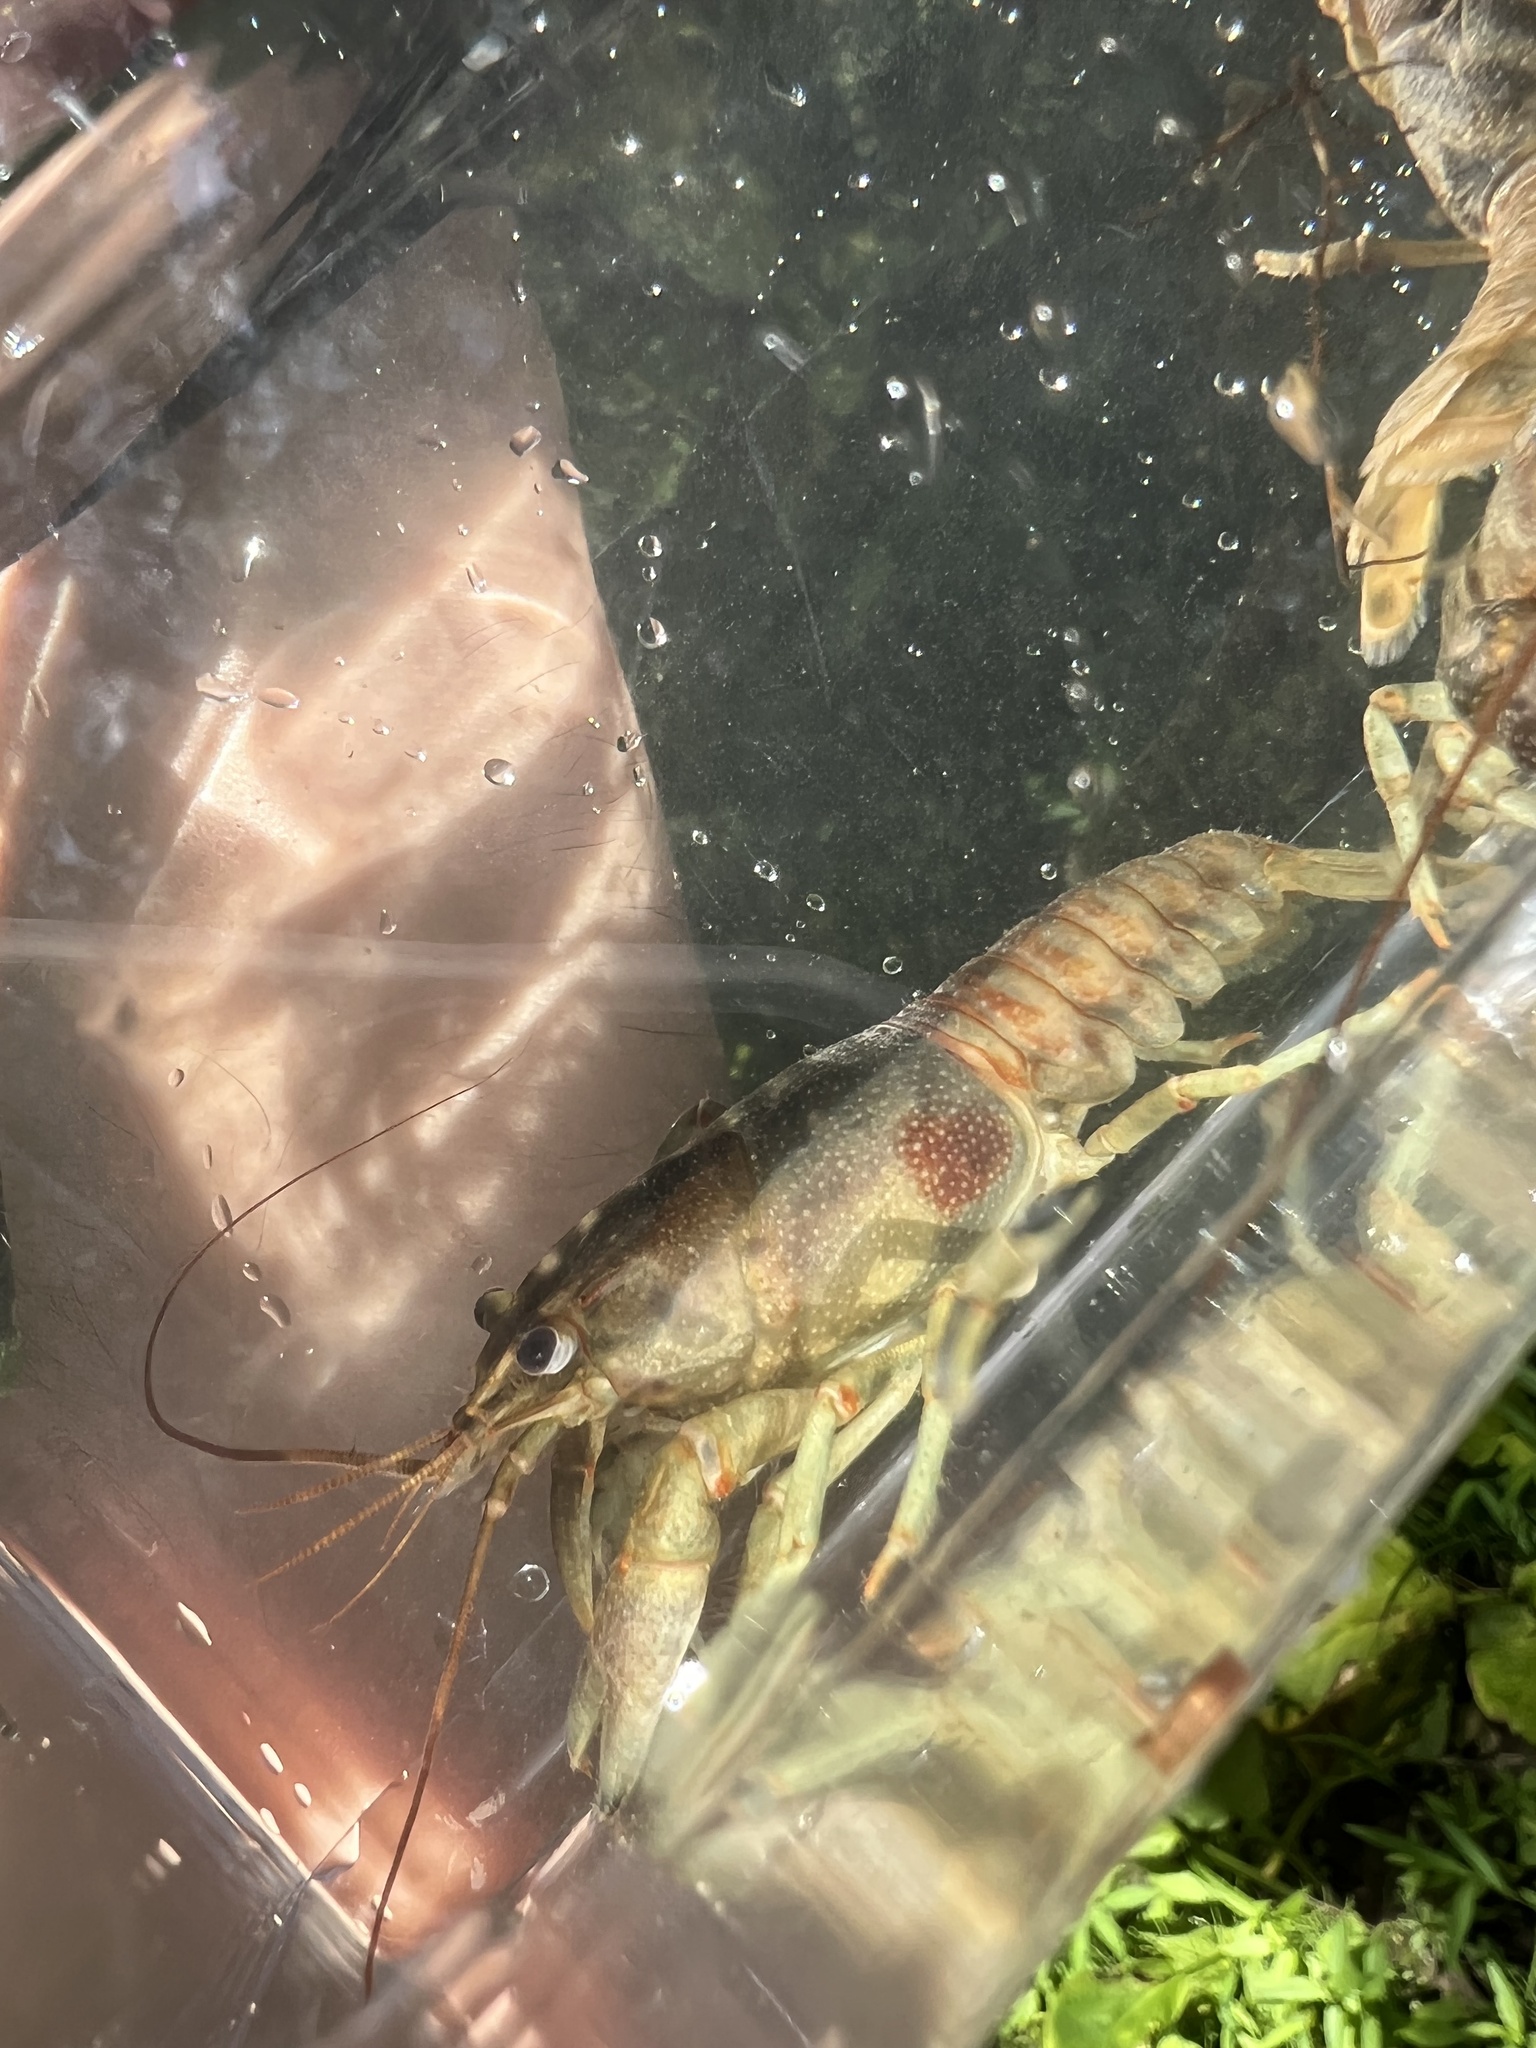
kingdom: Animalia
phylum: Arthropoda
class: Malacostraca
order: Decapoda
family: Cambaridae
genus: Faxonius
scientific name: Faxonius rusticus
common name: Rusty crayfish
